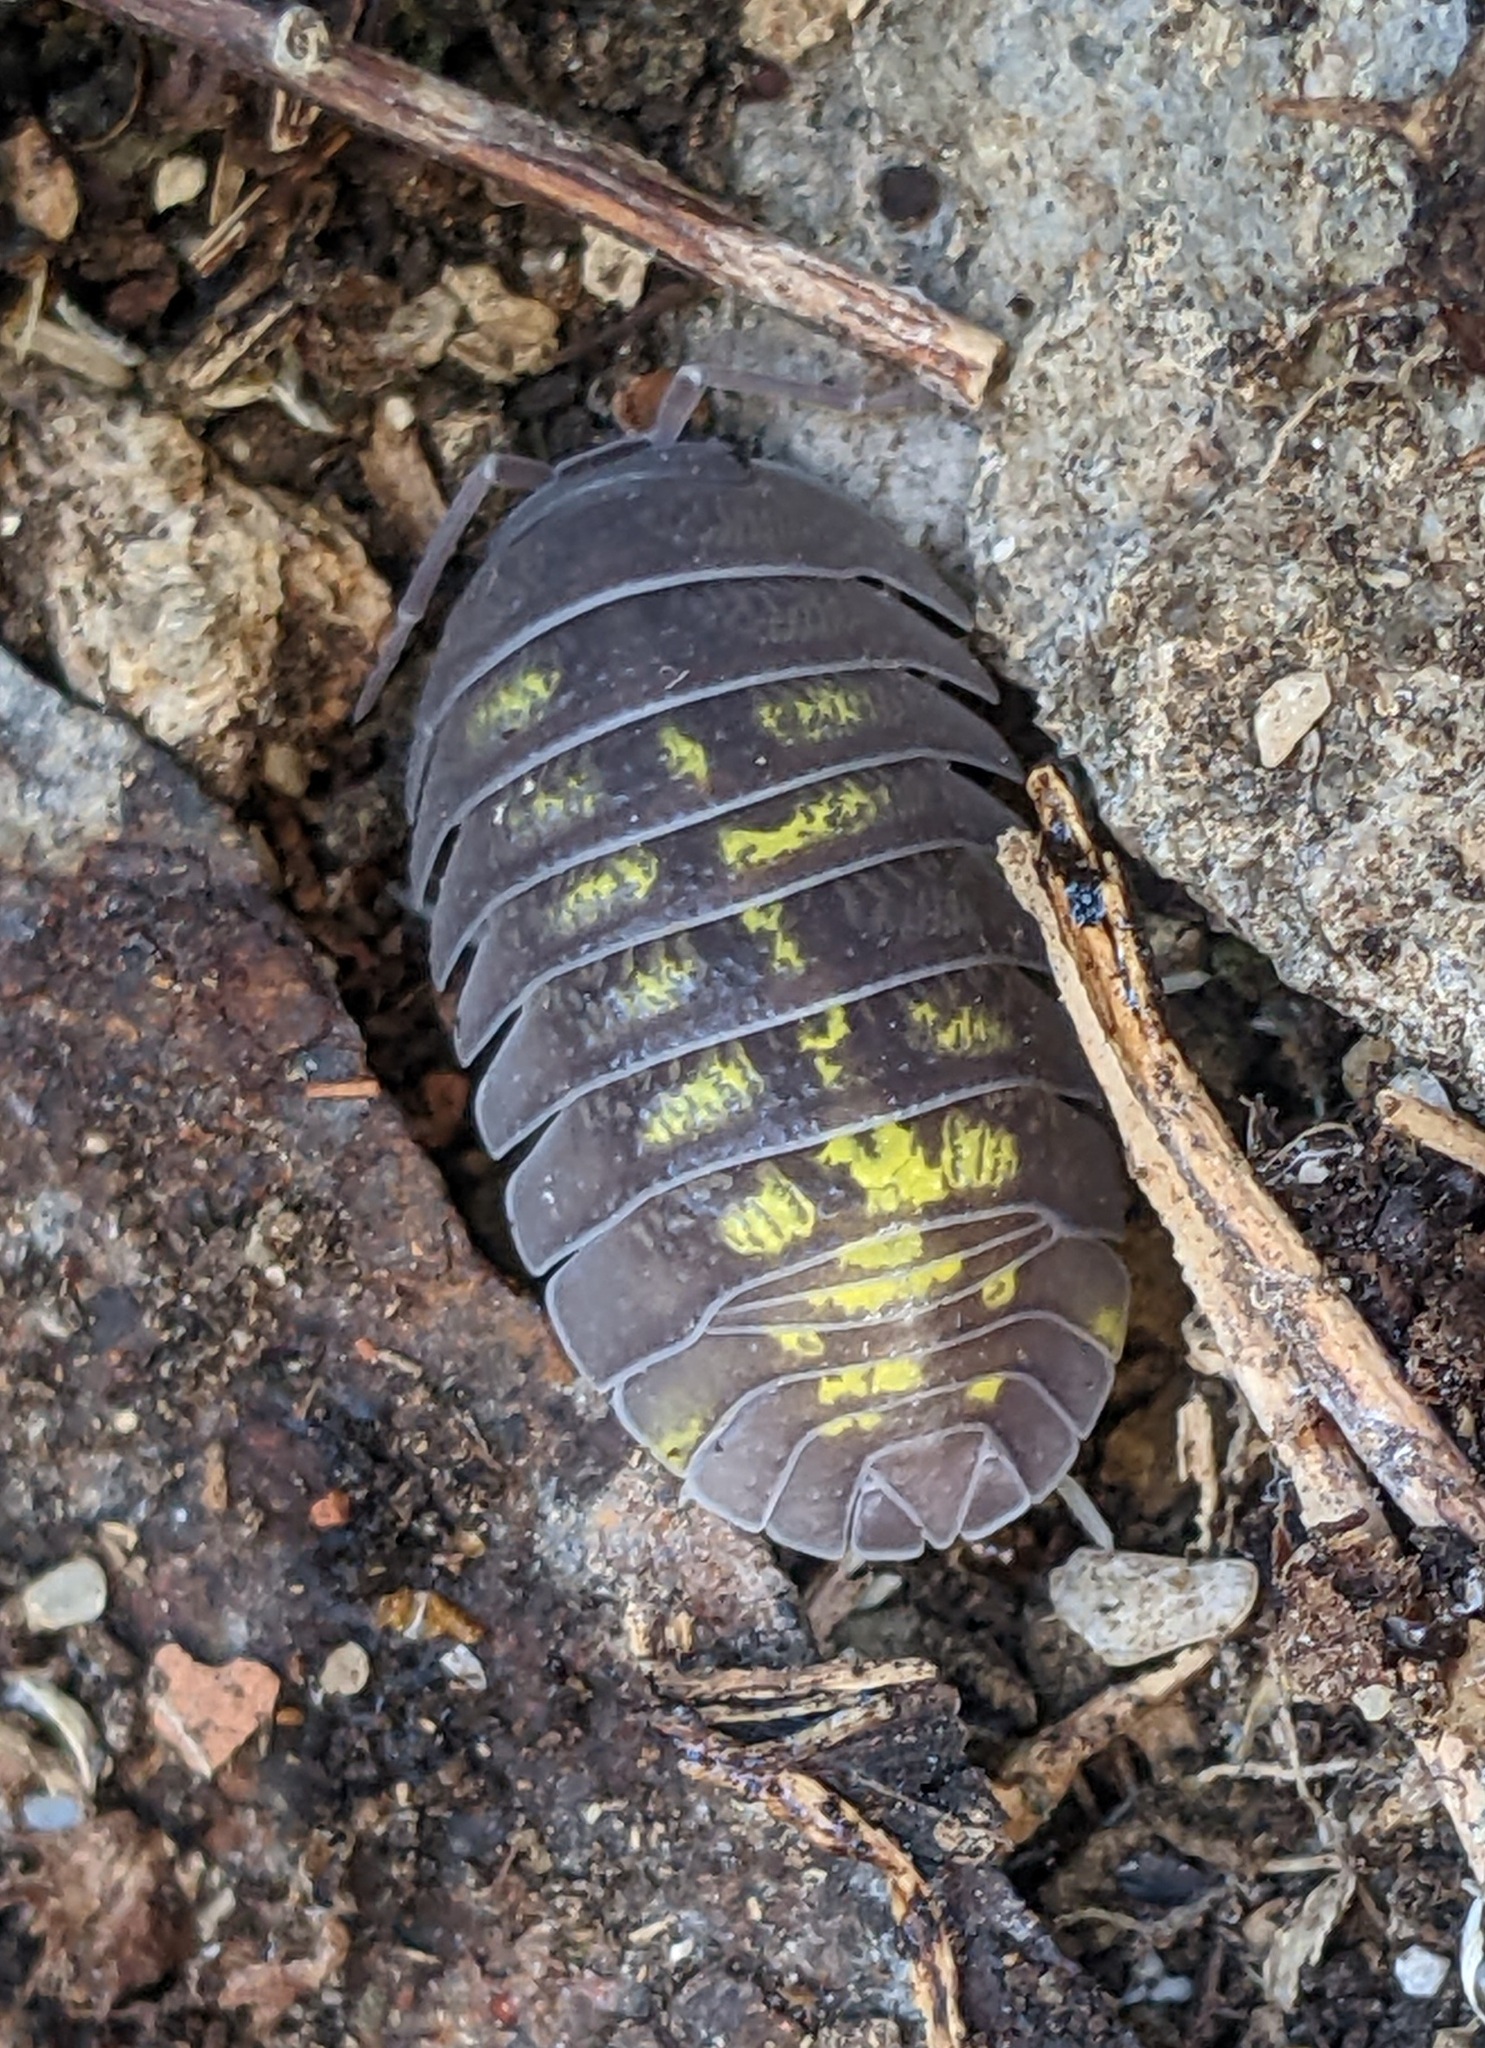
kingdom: Animalia
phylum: Arthropoda
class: Malacostraca
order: Isopoda
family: Armadillidiidae
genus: Armadillidium
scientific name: Armadillidium granulatum
